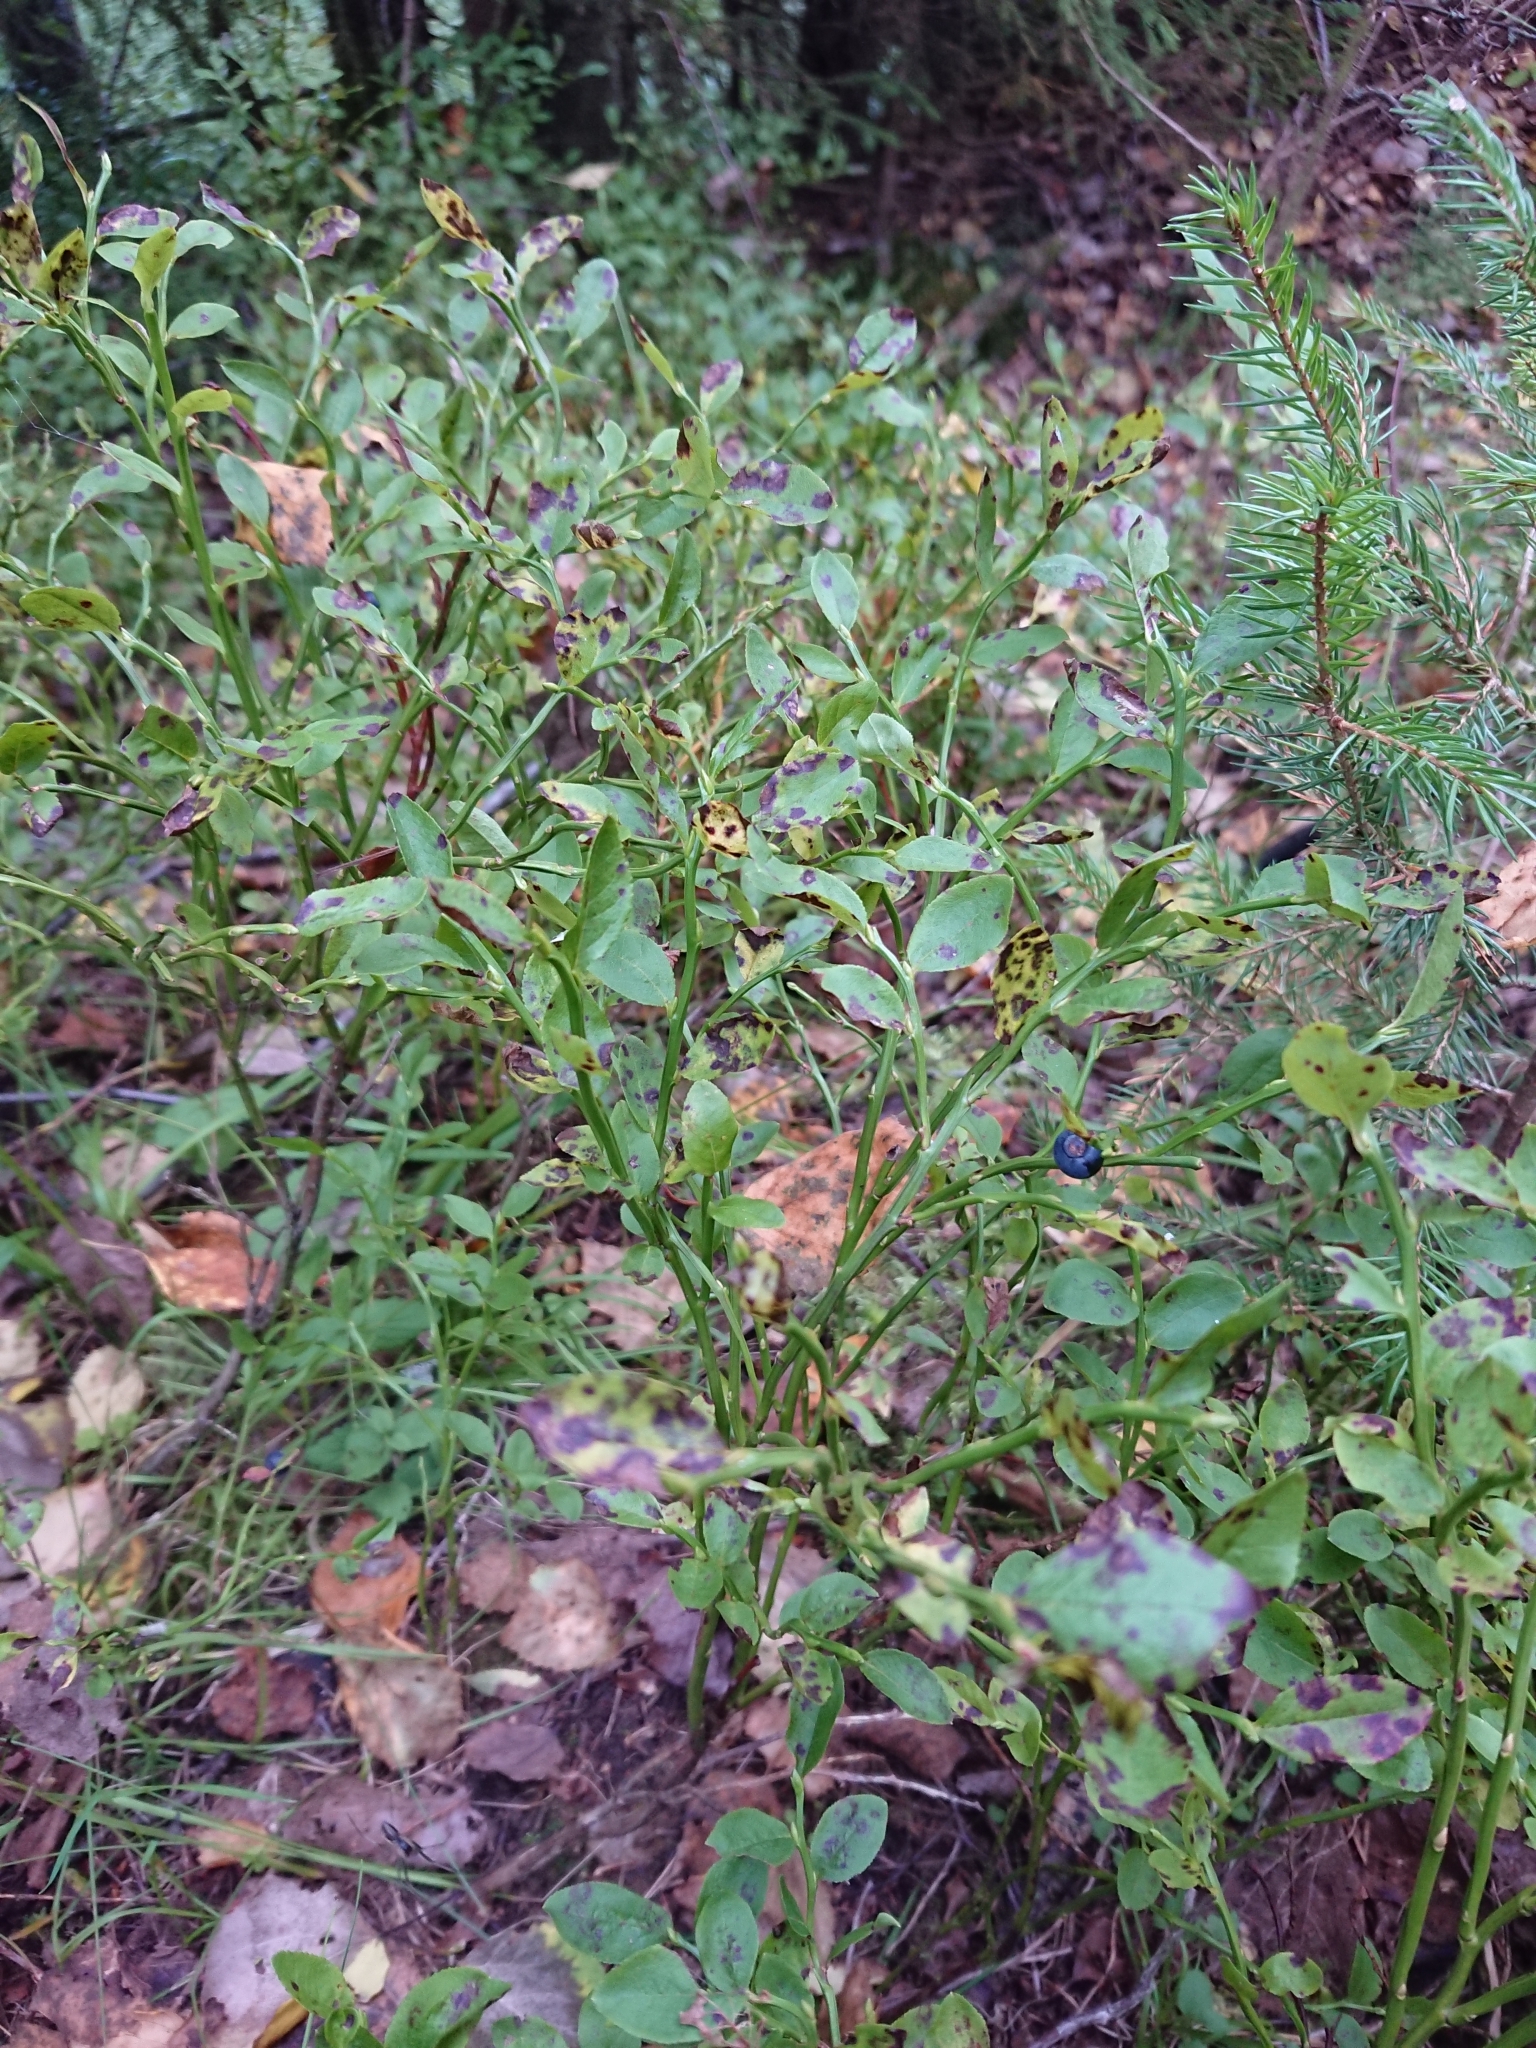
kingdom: Plantae
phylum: Tracheophyta
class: Magnoliopsida
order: Ericales
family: Ericaceae
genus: Vaccinium
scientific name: Vaccinium myrtillus
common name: Bilberry
